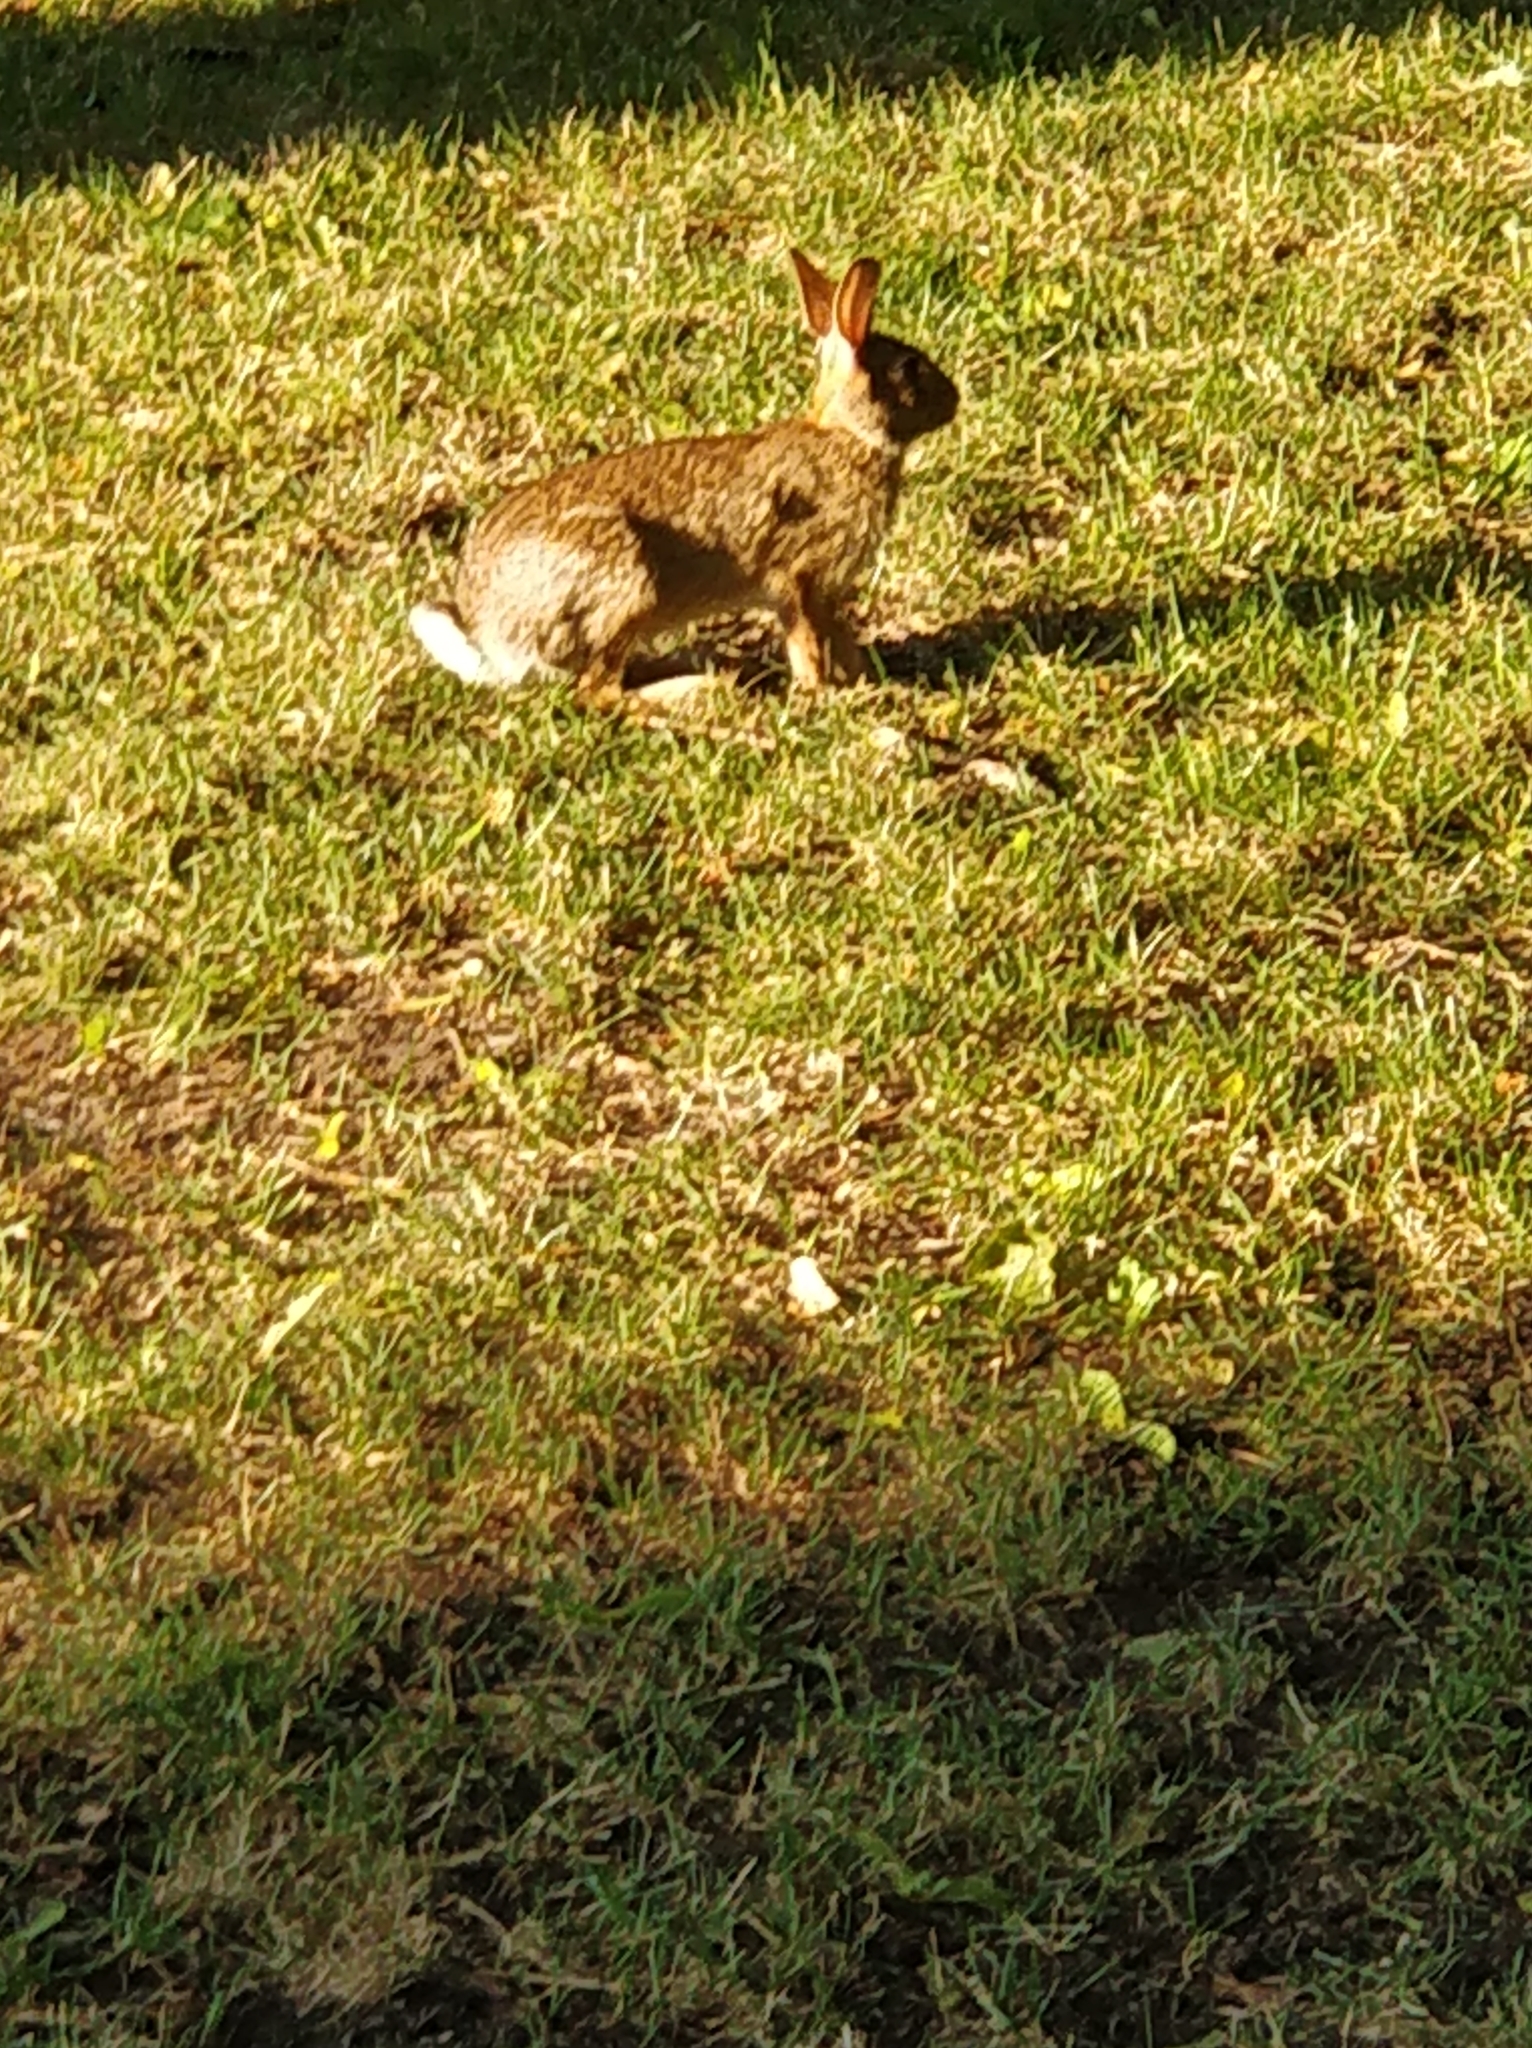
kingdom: Animalia
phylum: Chordata
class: Mammalia
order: Lagomorpha
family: Leporidae
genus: Sylvilagus
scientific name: Sylvilagus floridanus
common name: Eastern cottontail
